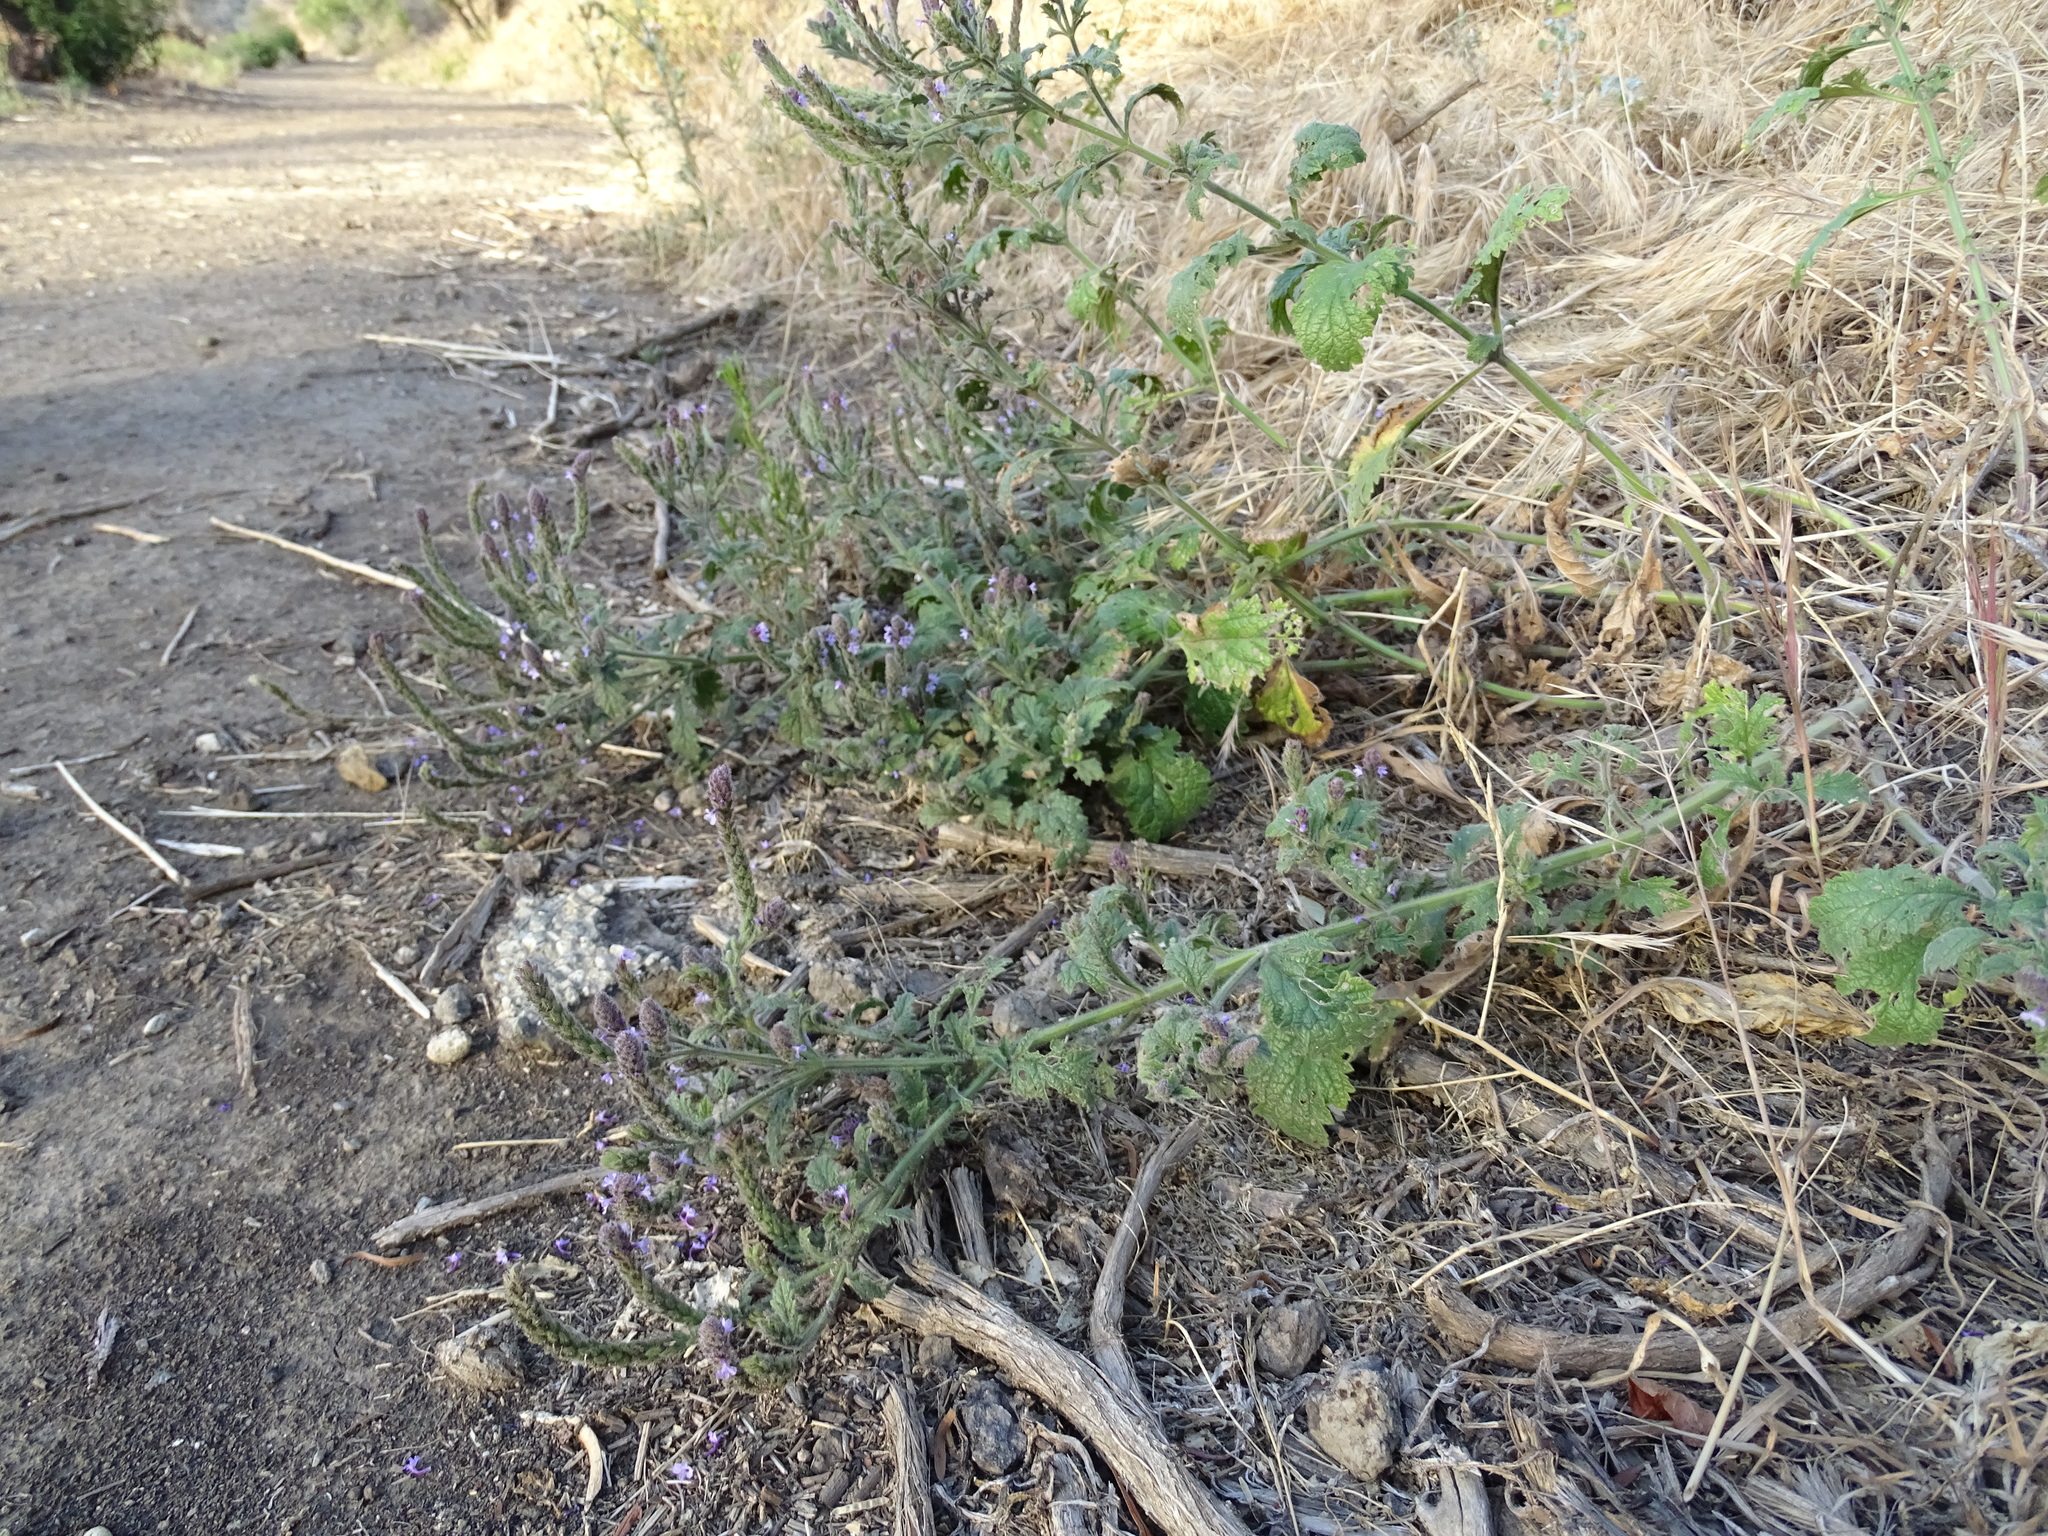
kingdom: Plantae
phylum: Tracheophyta
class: Magnoliopsida
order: Lamiales
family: Verbenaceae
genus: Verbena
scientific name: Verbena lasiostachys
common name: Vervain
